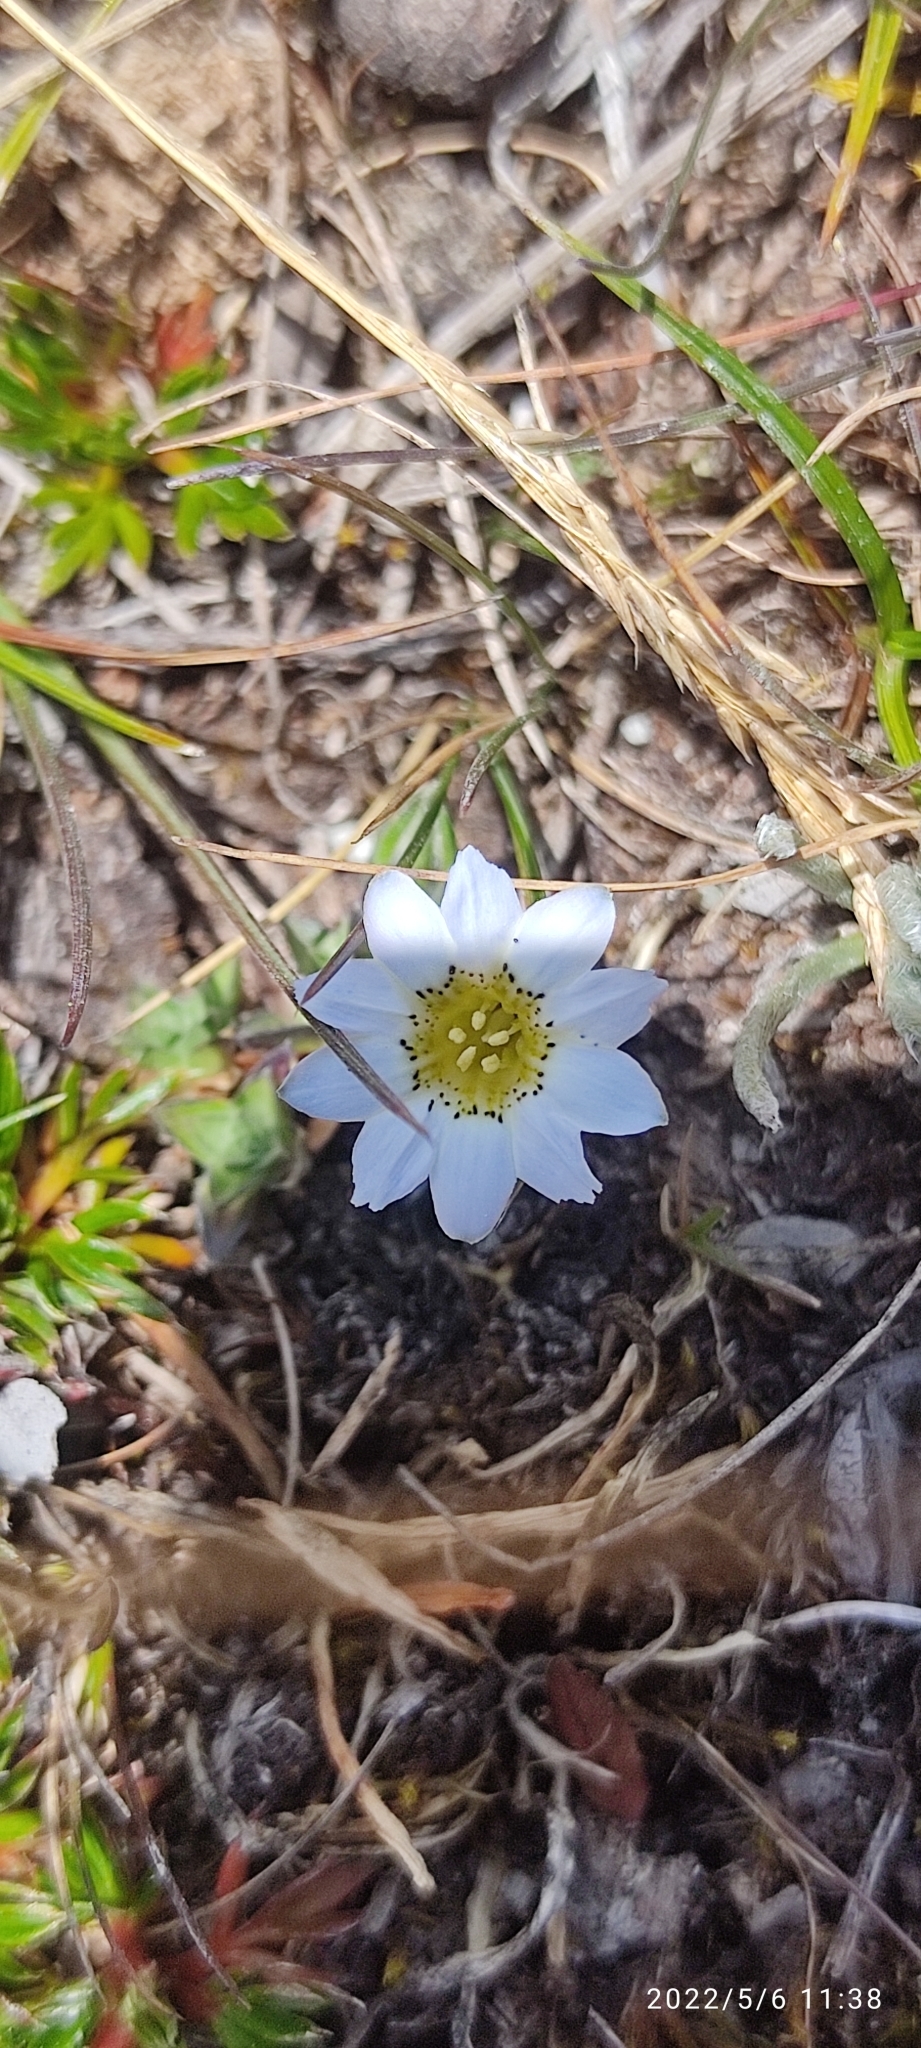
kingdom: Plantae
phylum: Tracheophyta
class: Magnoliopsida
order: Gentianales
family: Gentianaceae
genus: Gentiana
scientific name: Gentiana sedifolia
